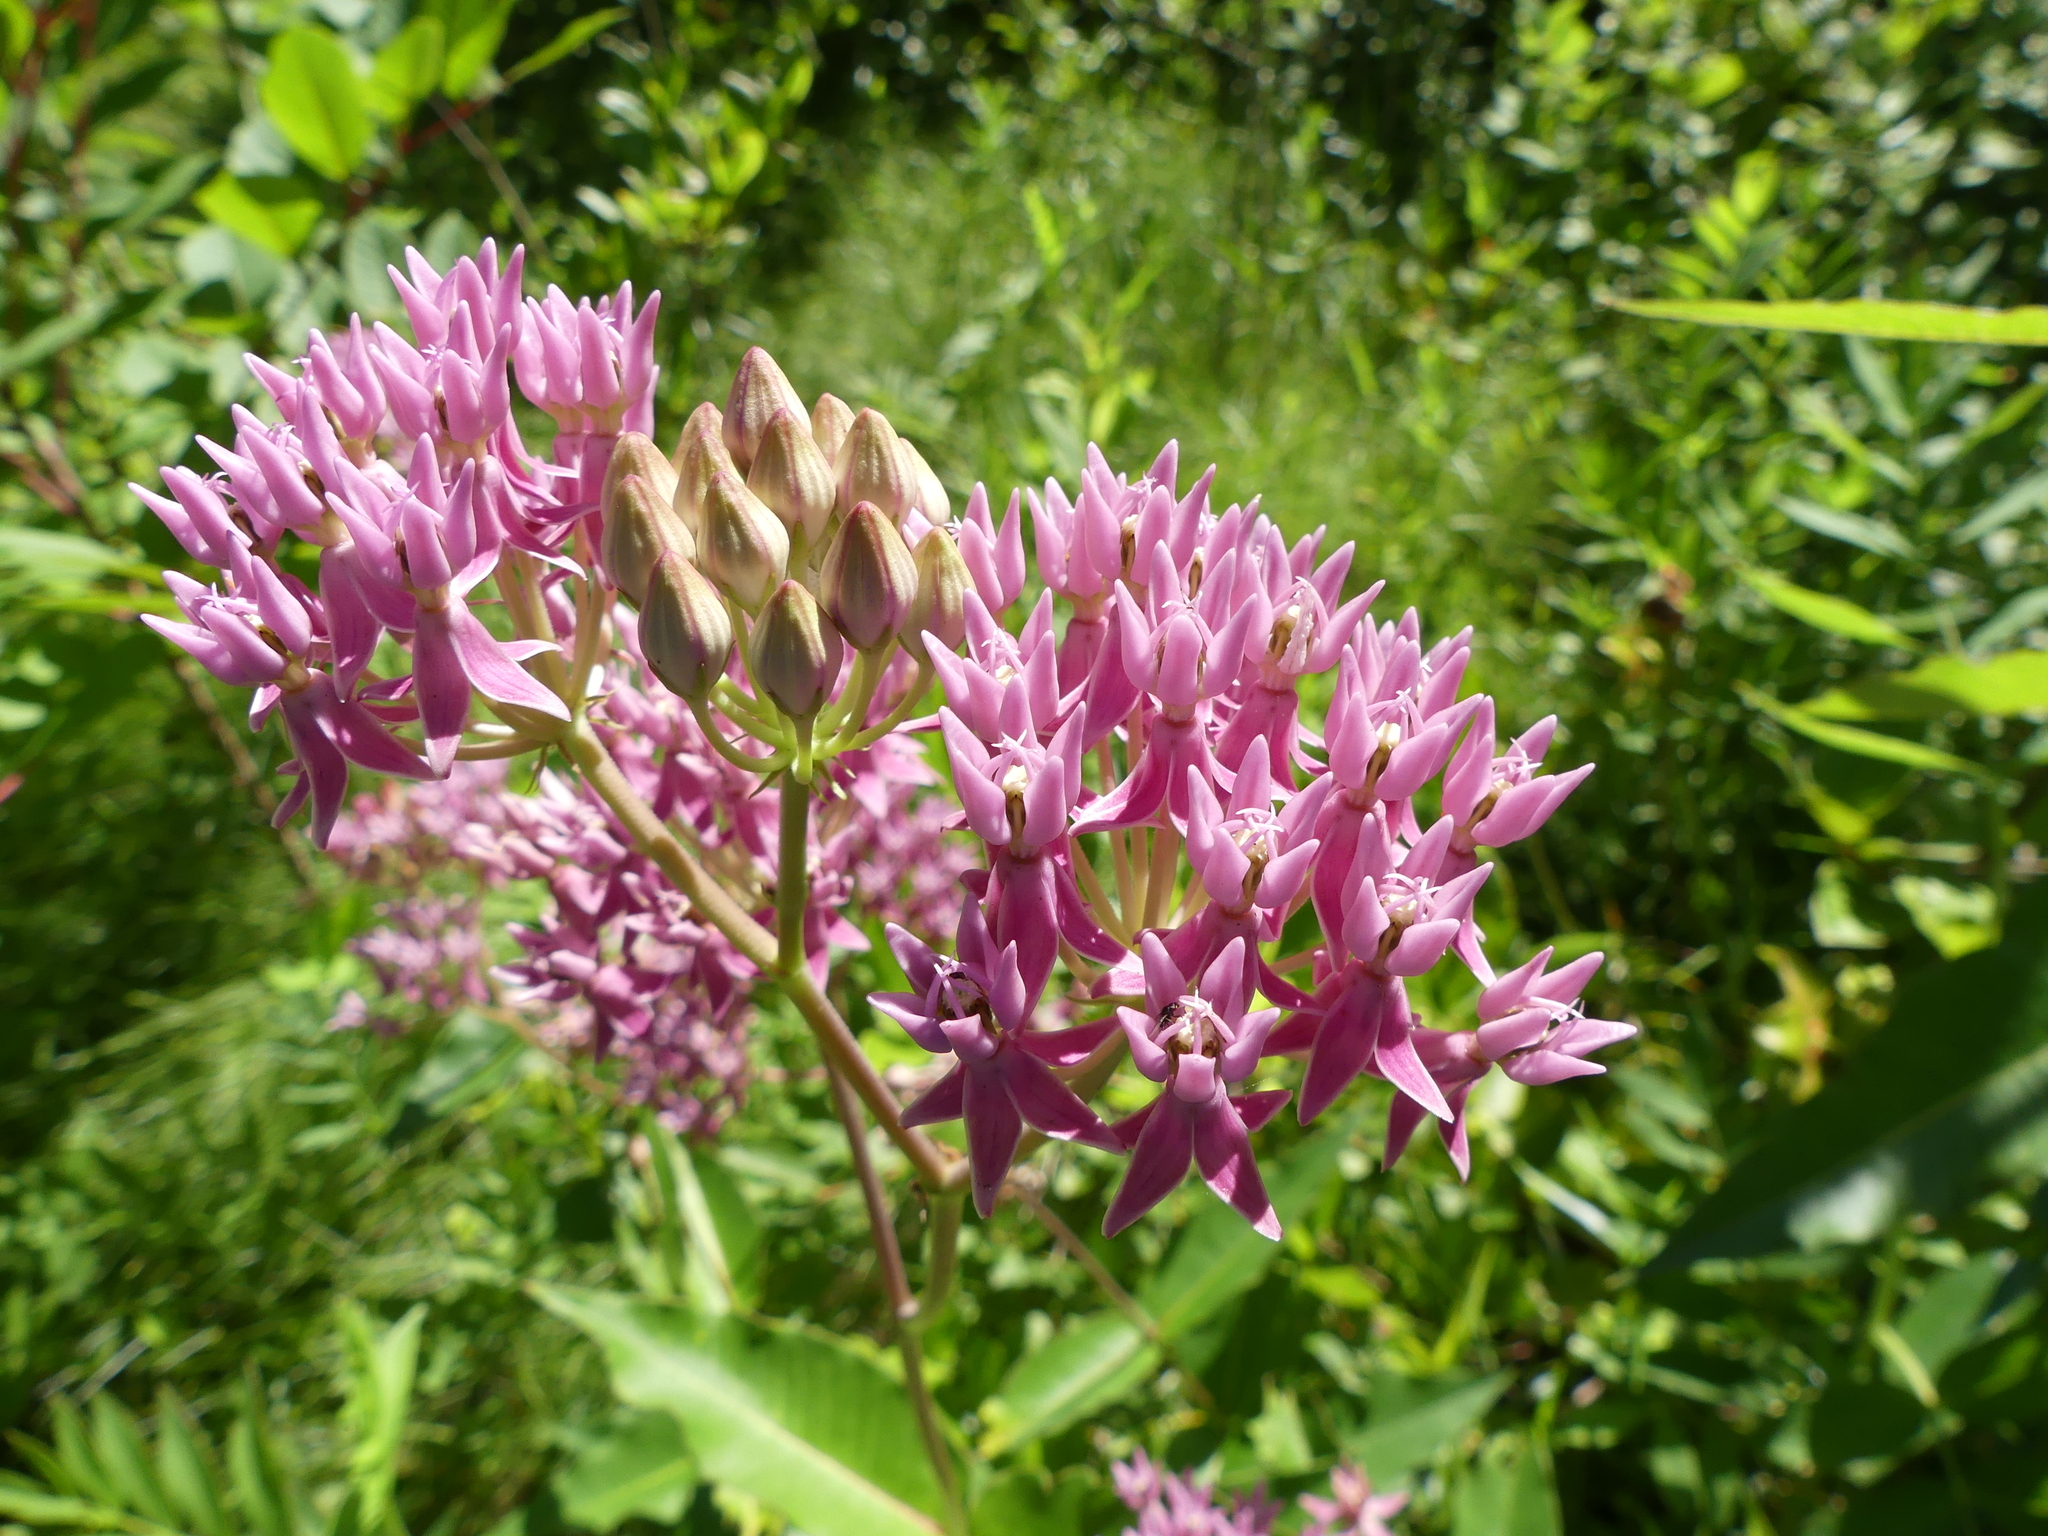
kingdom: Plantae
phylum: Tracheophyta
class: Magnoliopsida
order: Gentianales
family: Apocynaceae
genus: Asclepias
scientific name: Asclepias rubra
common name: Red milkweed
